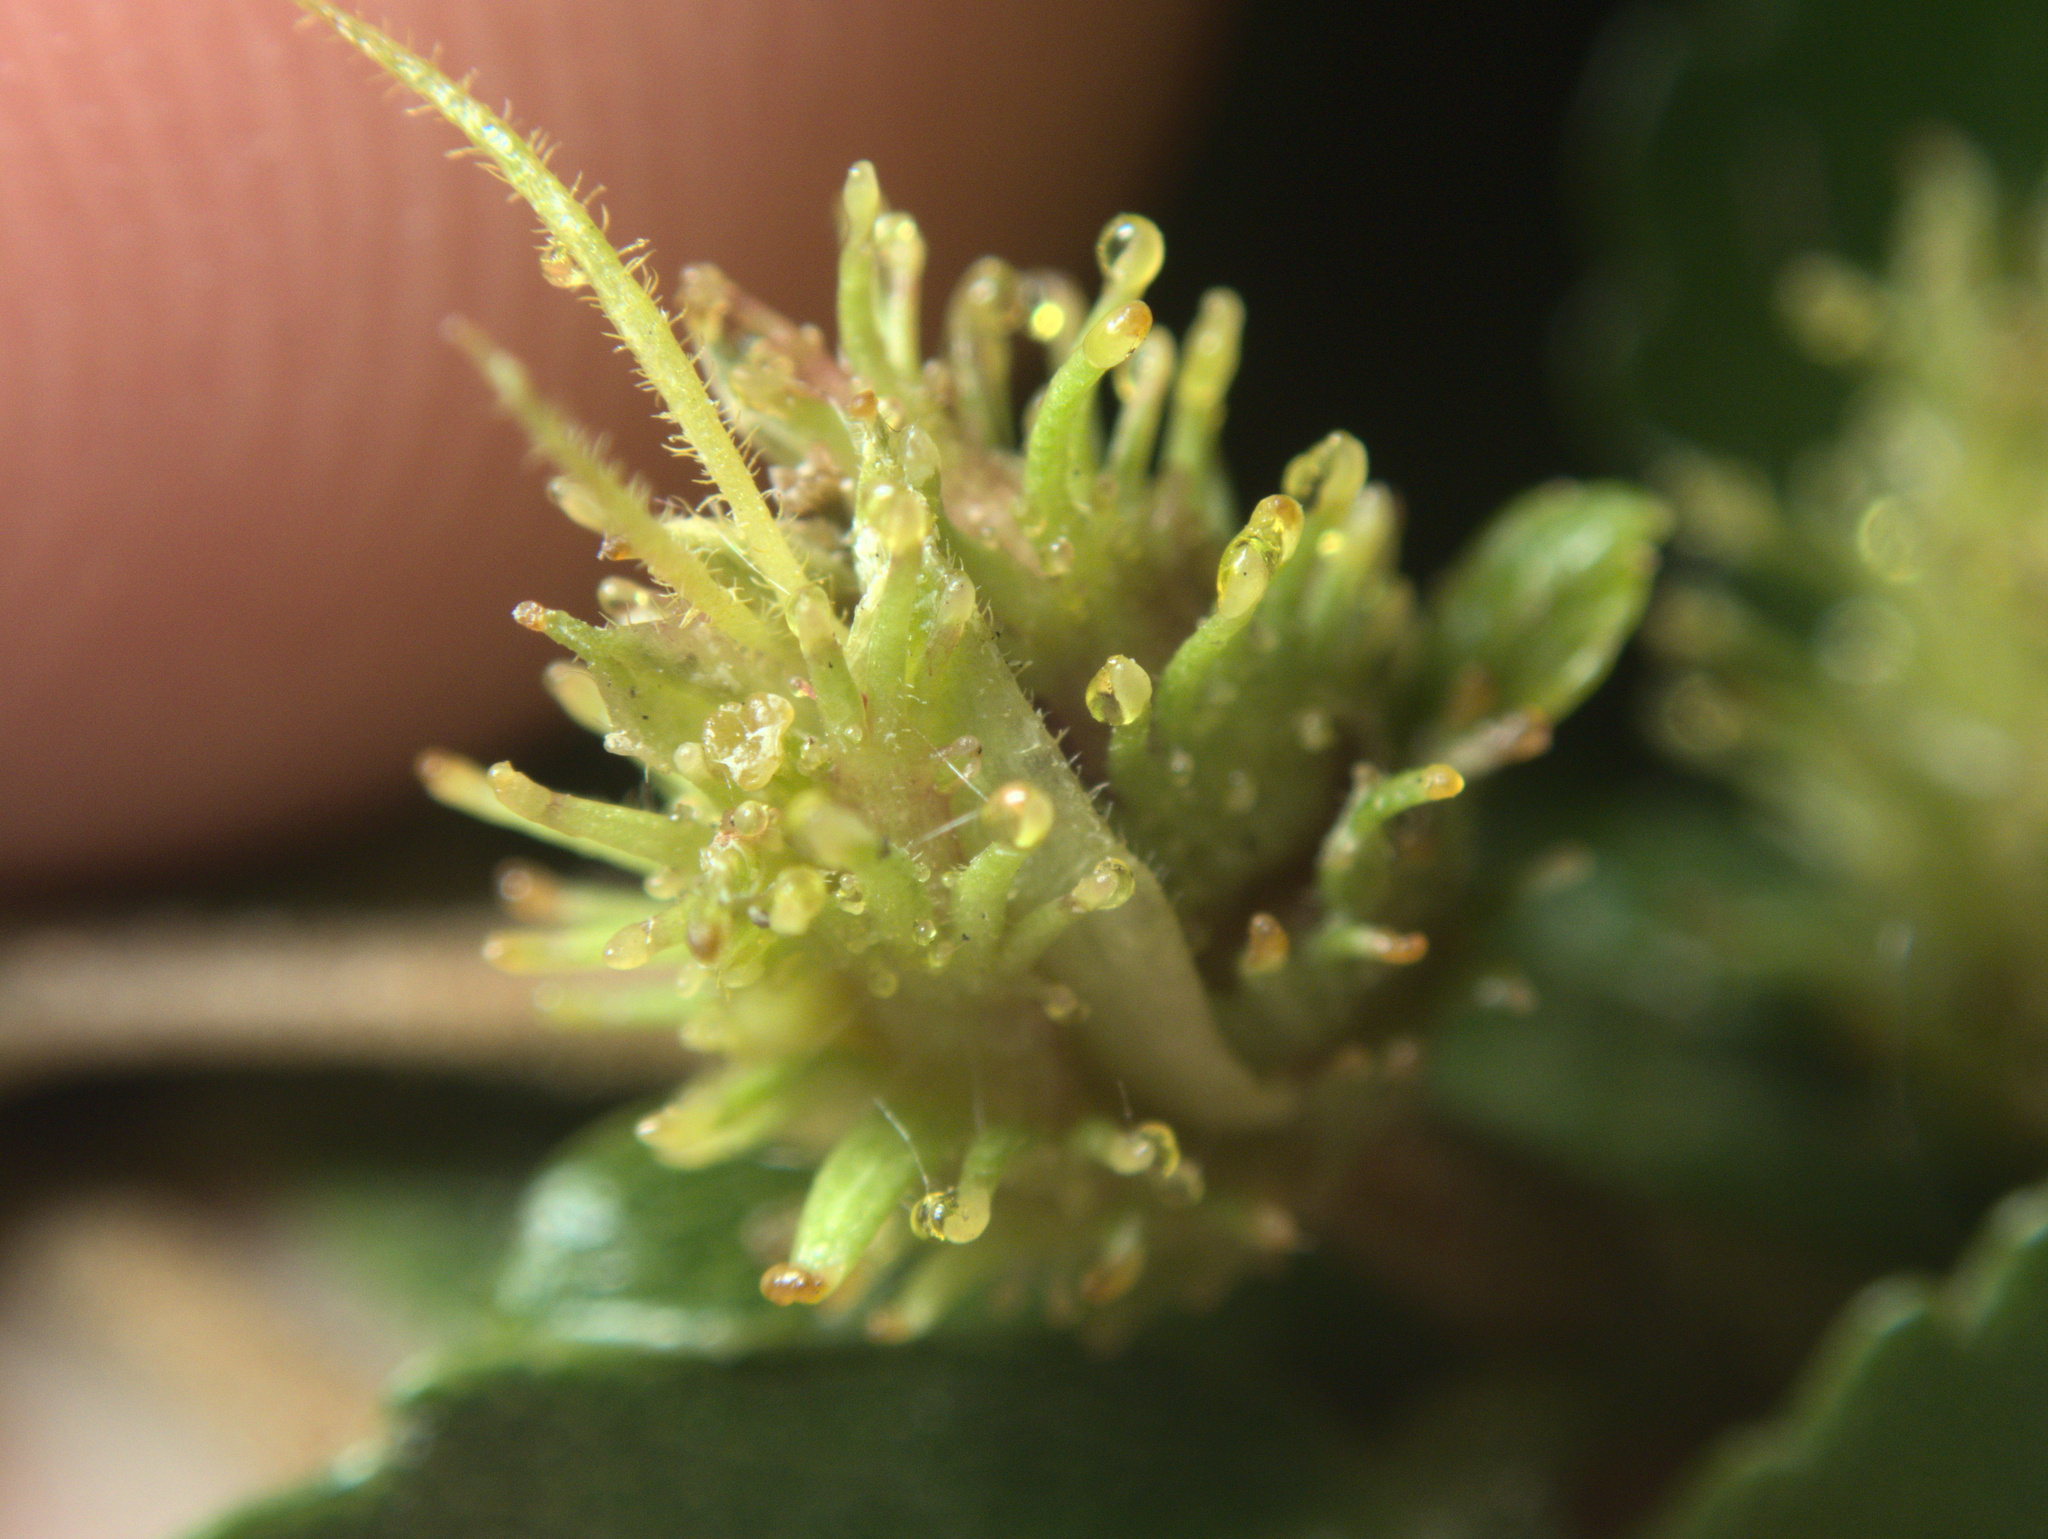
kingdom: Plantae
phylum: Tracheophyta
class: Magnoliopsida
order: Fagales
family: Nothofagaceae
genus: Nothofagus
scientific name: Nothofagus menziesii
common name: Silver beech
